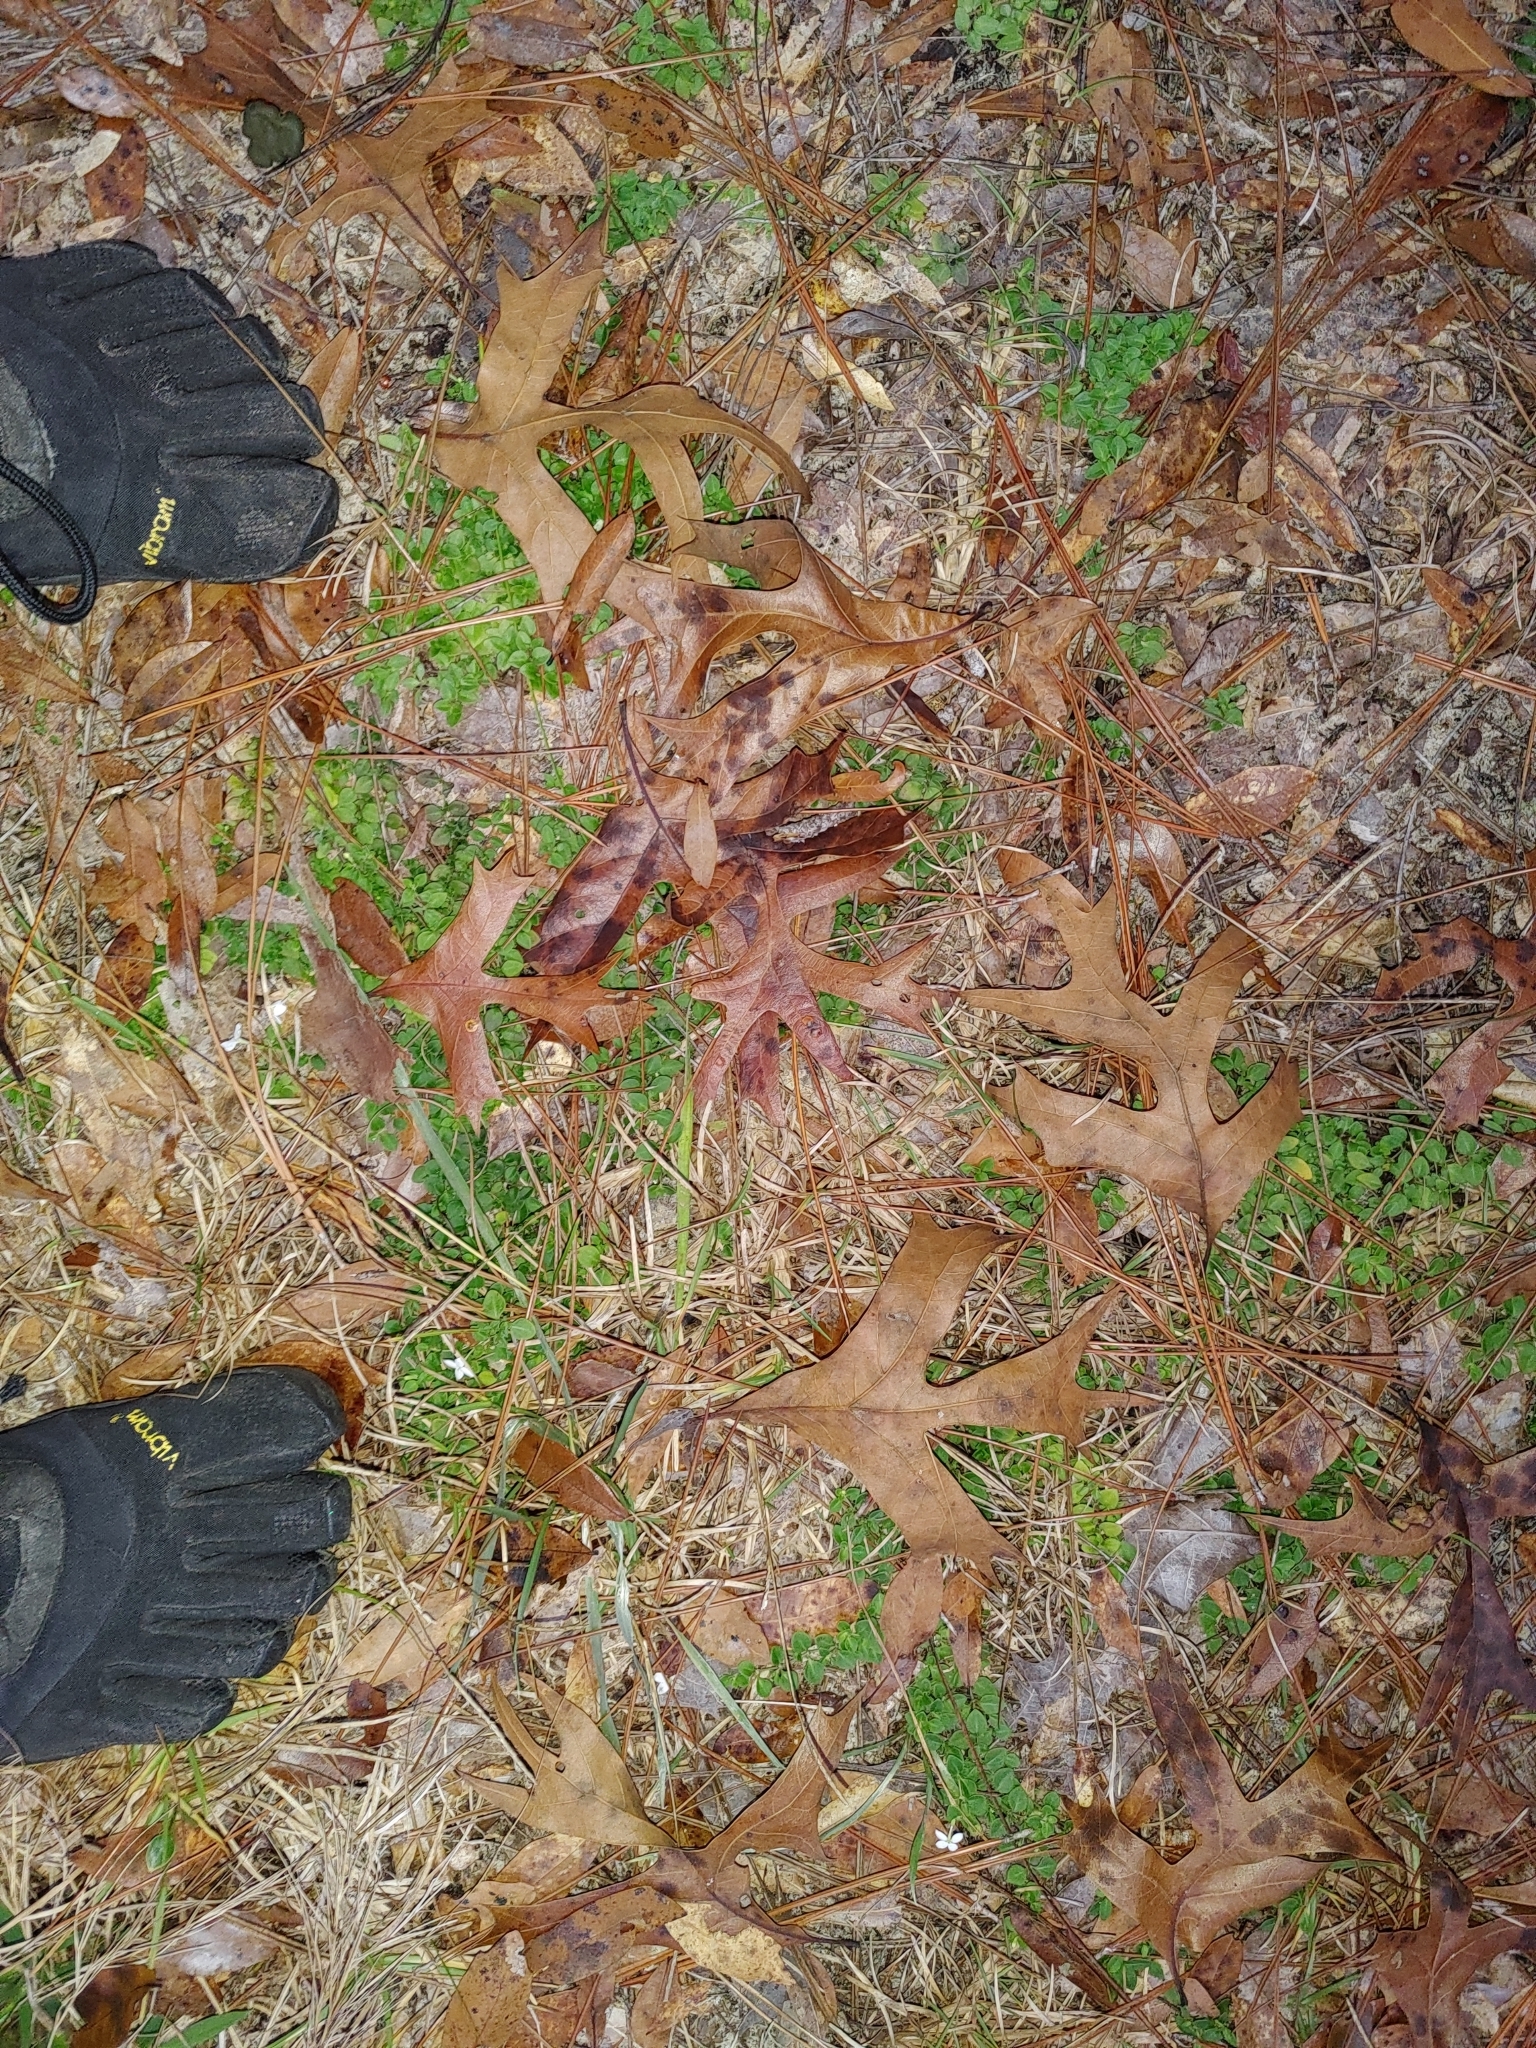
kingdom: Plantae
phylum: Tracheophyta
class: Magnoliopsida
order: Gentianales
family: Rubiaceae
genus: Houstonia
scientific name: Houstonia procumbens
